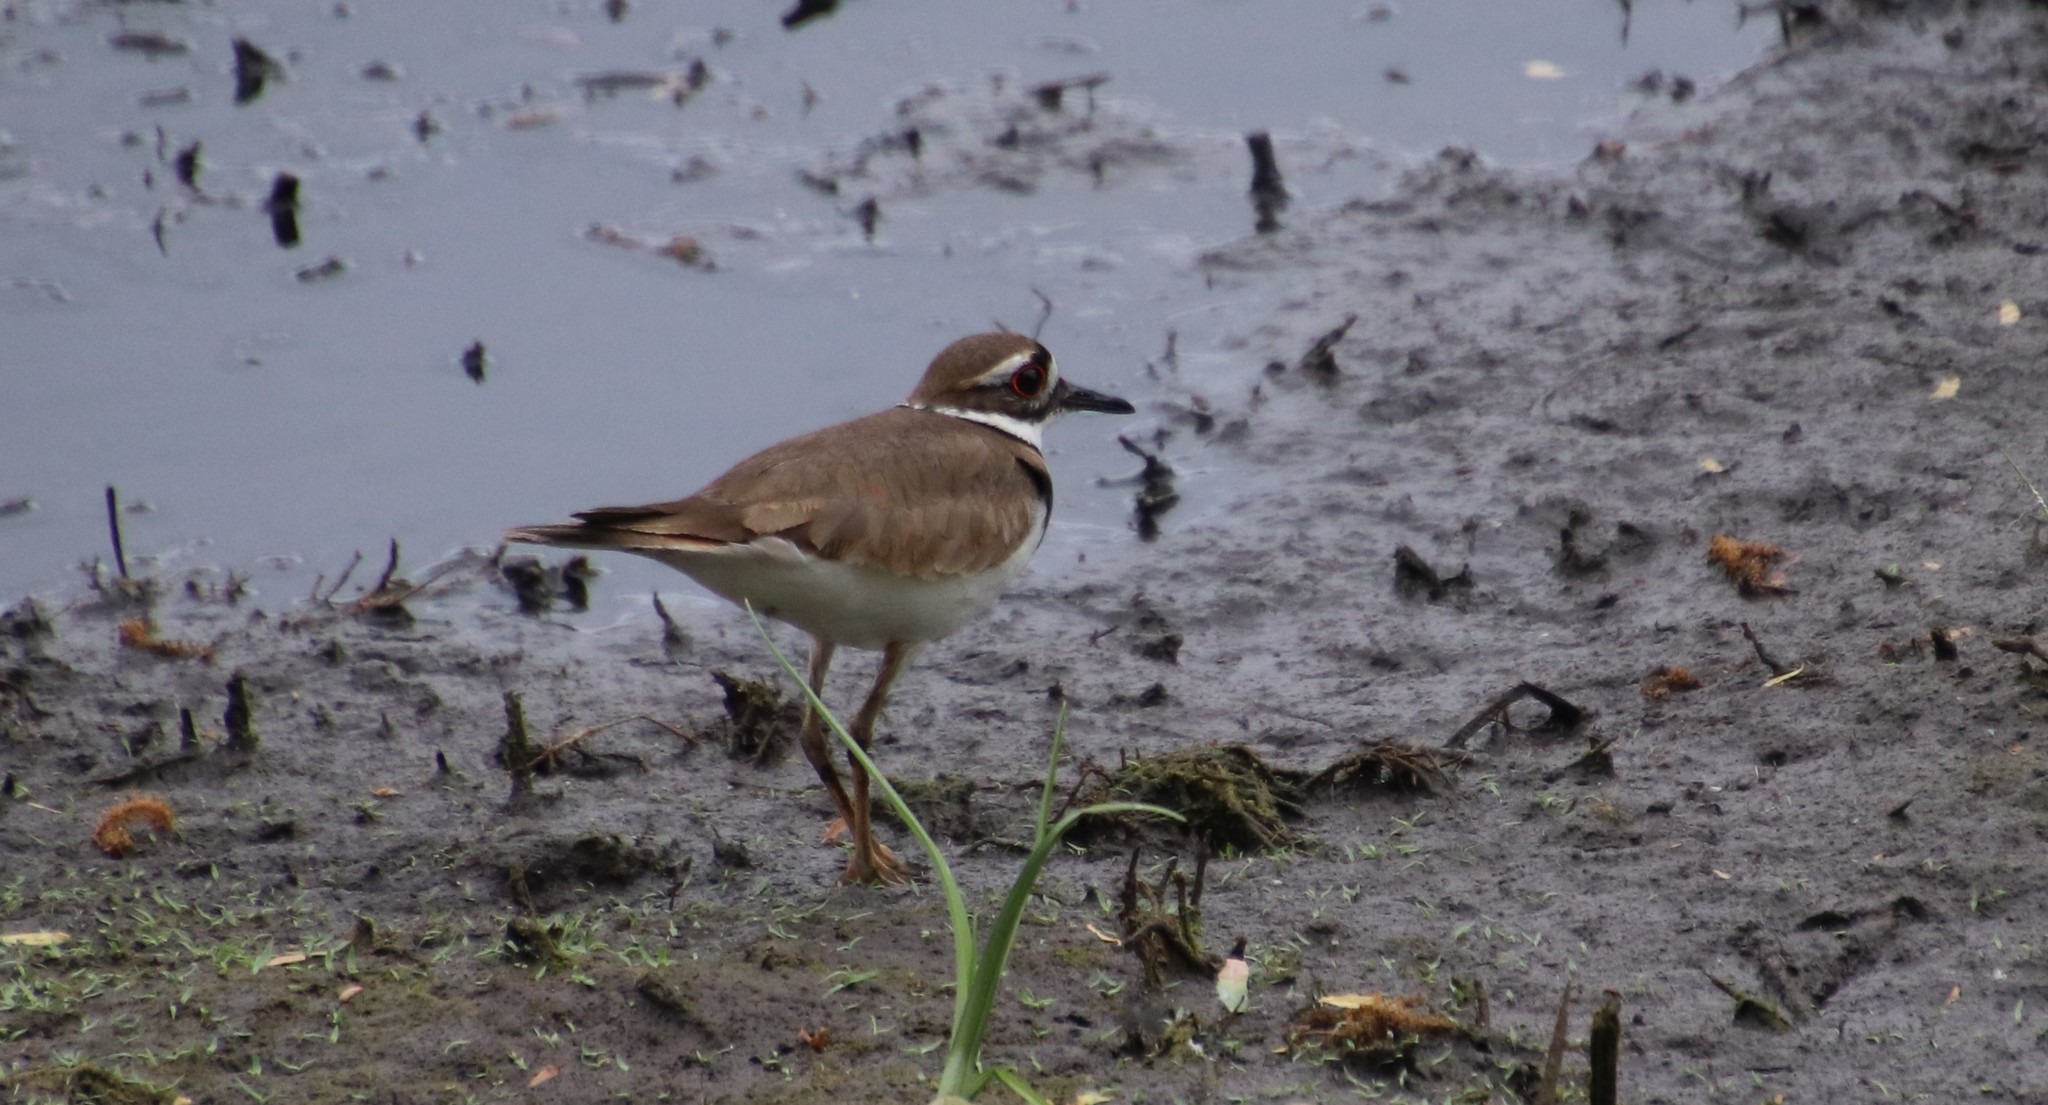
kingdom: Animalia
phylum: Chordata
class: Aves
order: Charadriiformes
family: Charadriidae
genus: Charadrius
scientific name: Charadrius vociferus
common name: Killdeer
